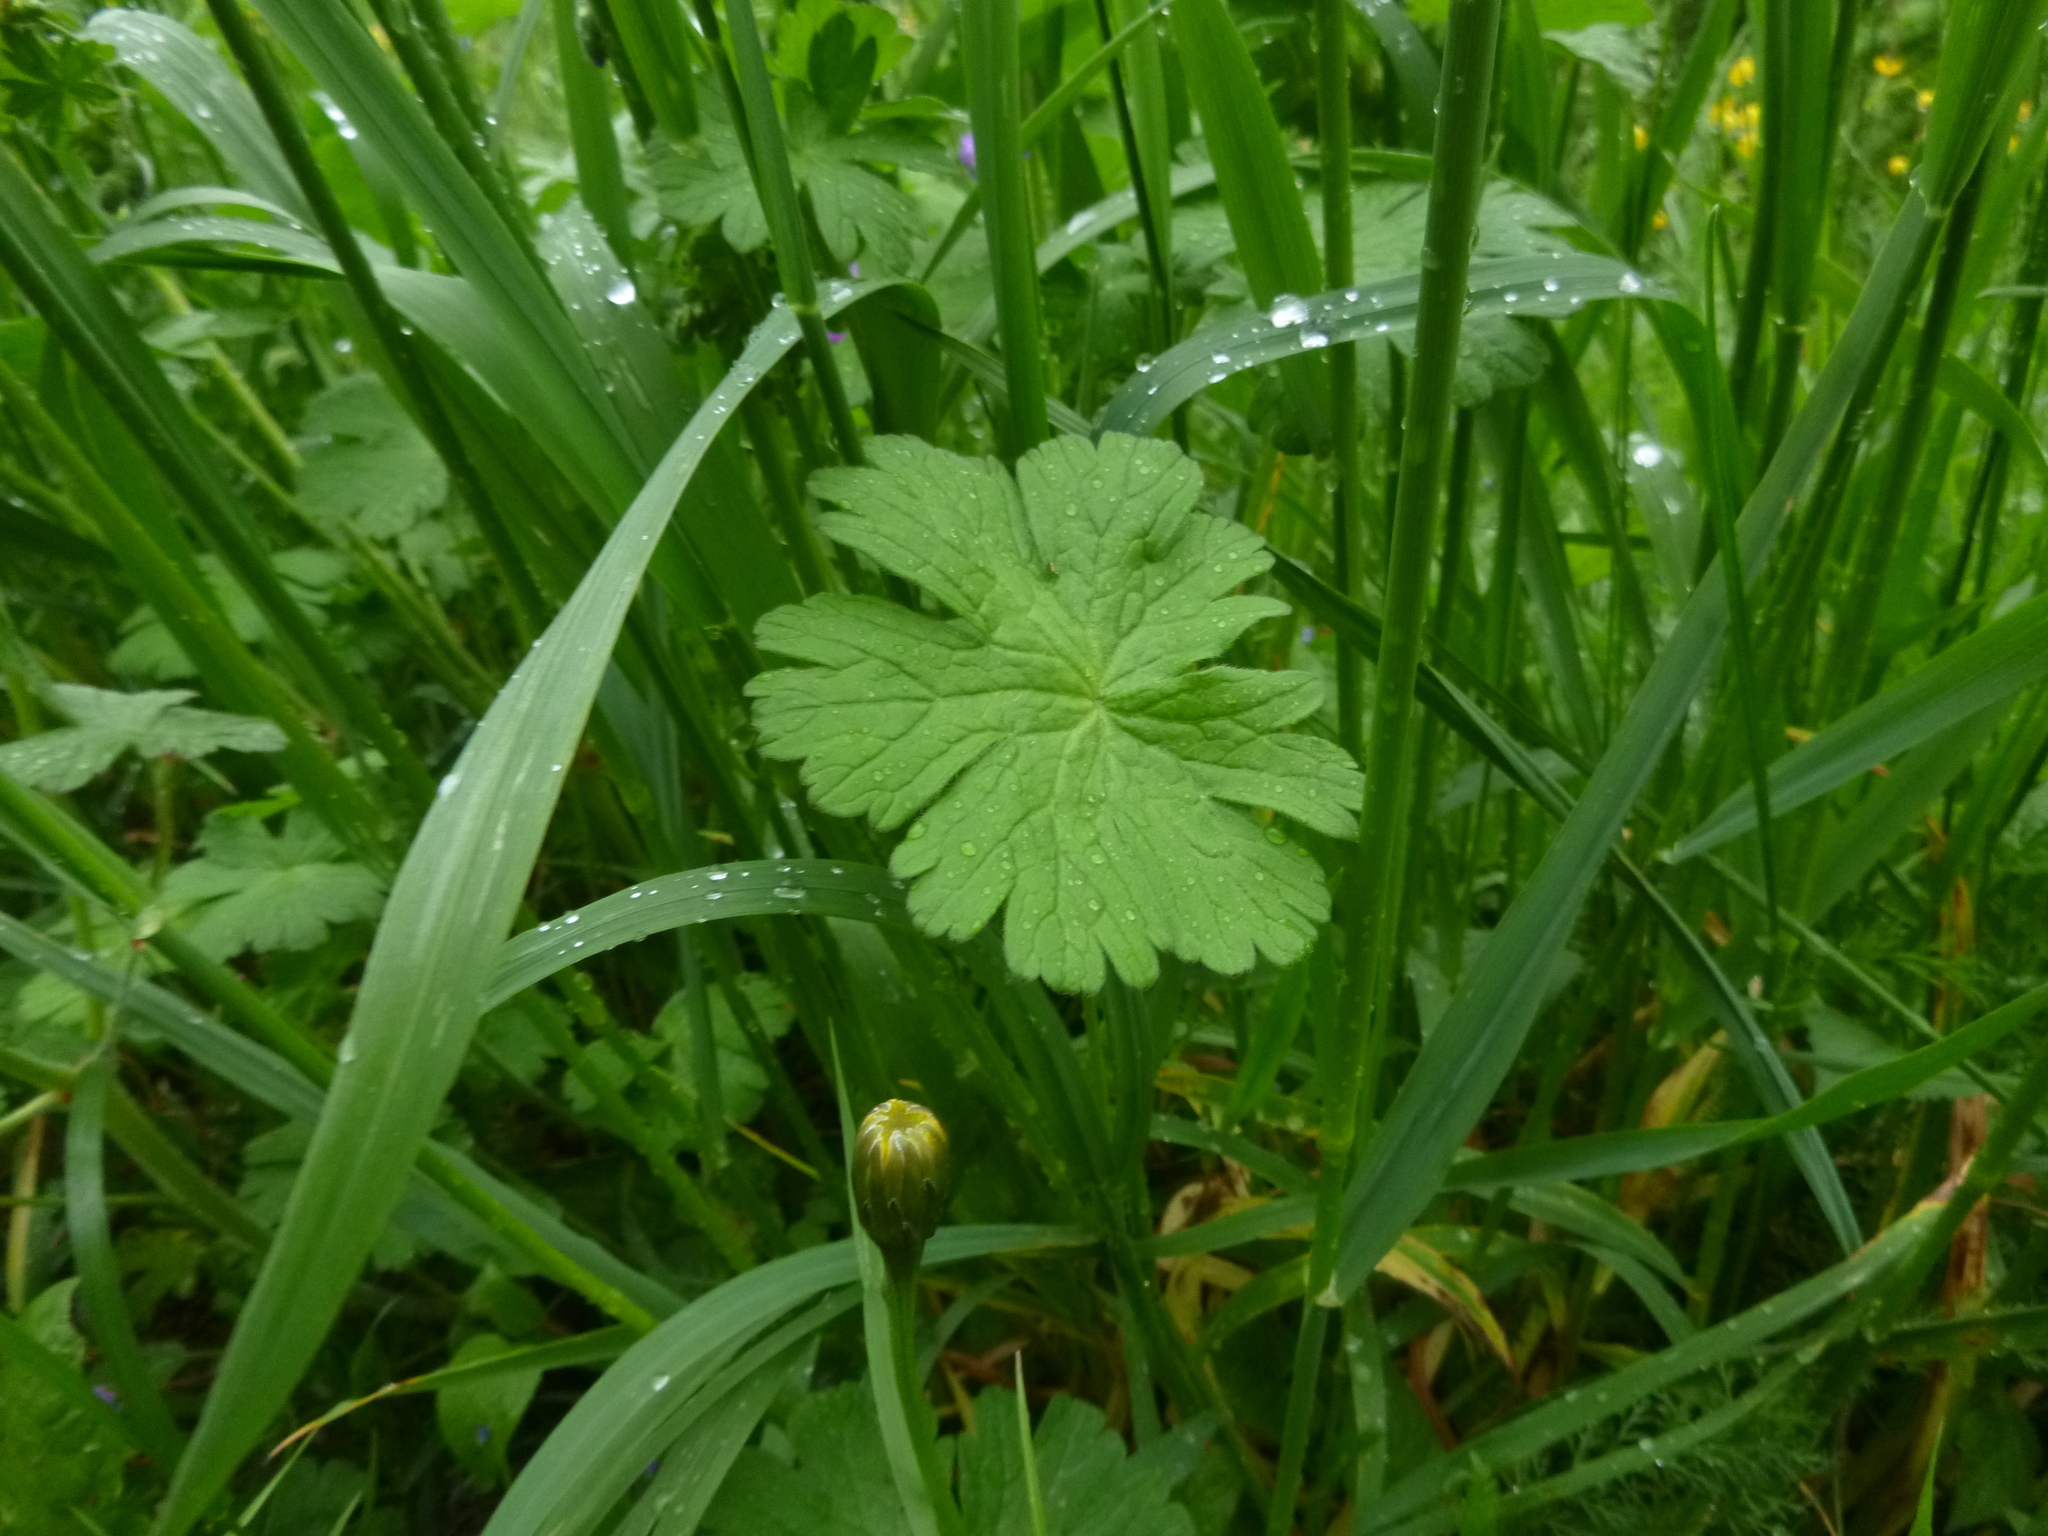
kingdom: Plantae
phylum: Tracheophyta
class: Magnoliopsida
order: Geraniales
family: Geraniaceae
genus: Geranium
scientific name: Geranium pyrenaicum
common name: Hedgerow crane's-bill
